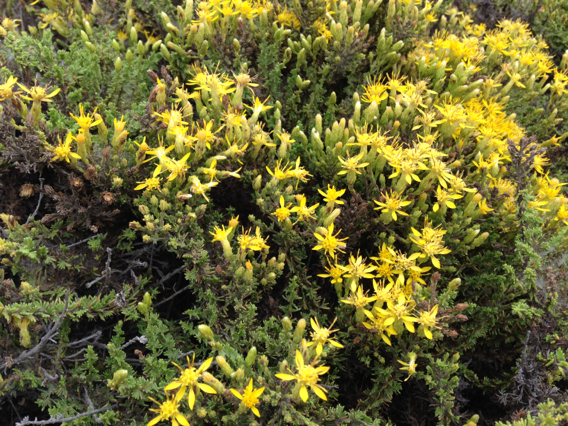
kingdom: Plantae
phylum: Tracheophyta
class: Magnoliopsida
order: Asterales
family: Asteraceae
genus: Ericameria
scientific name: Ericameria ericoides
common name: California goldenbush
